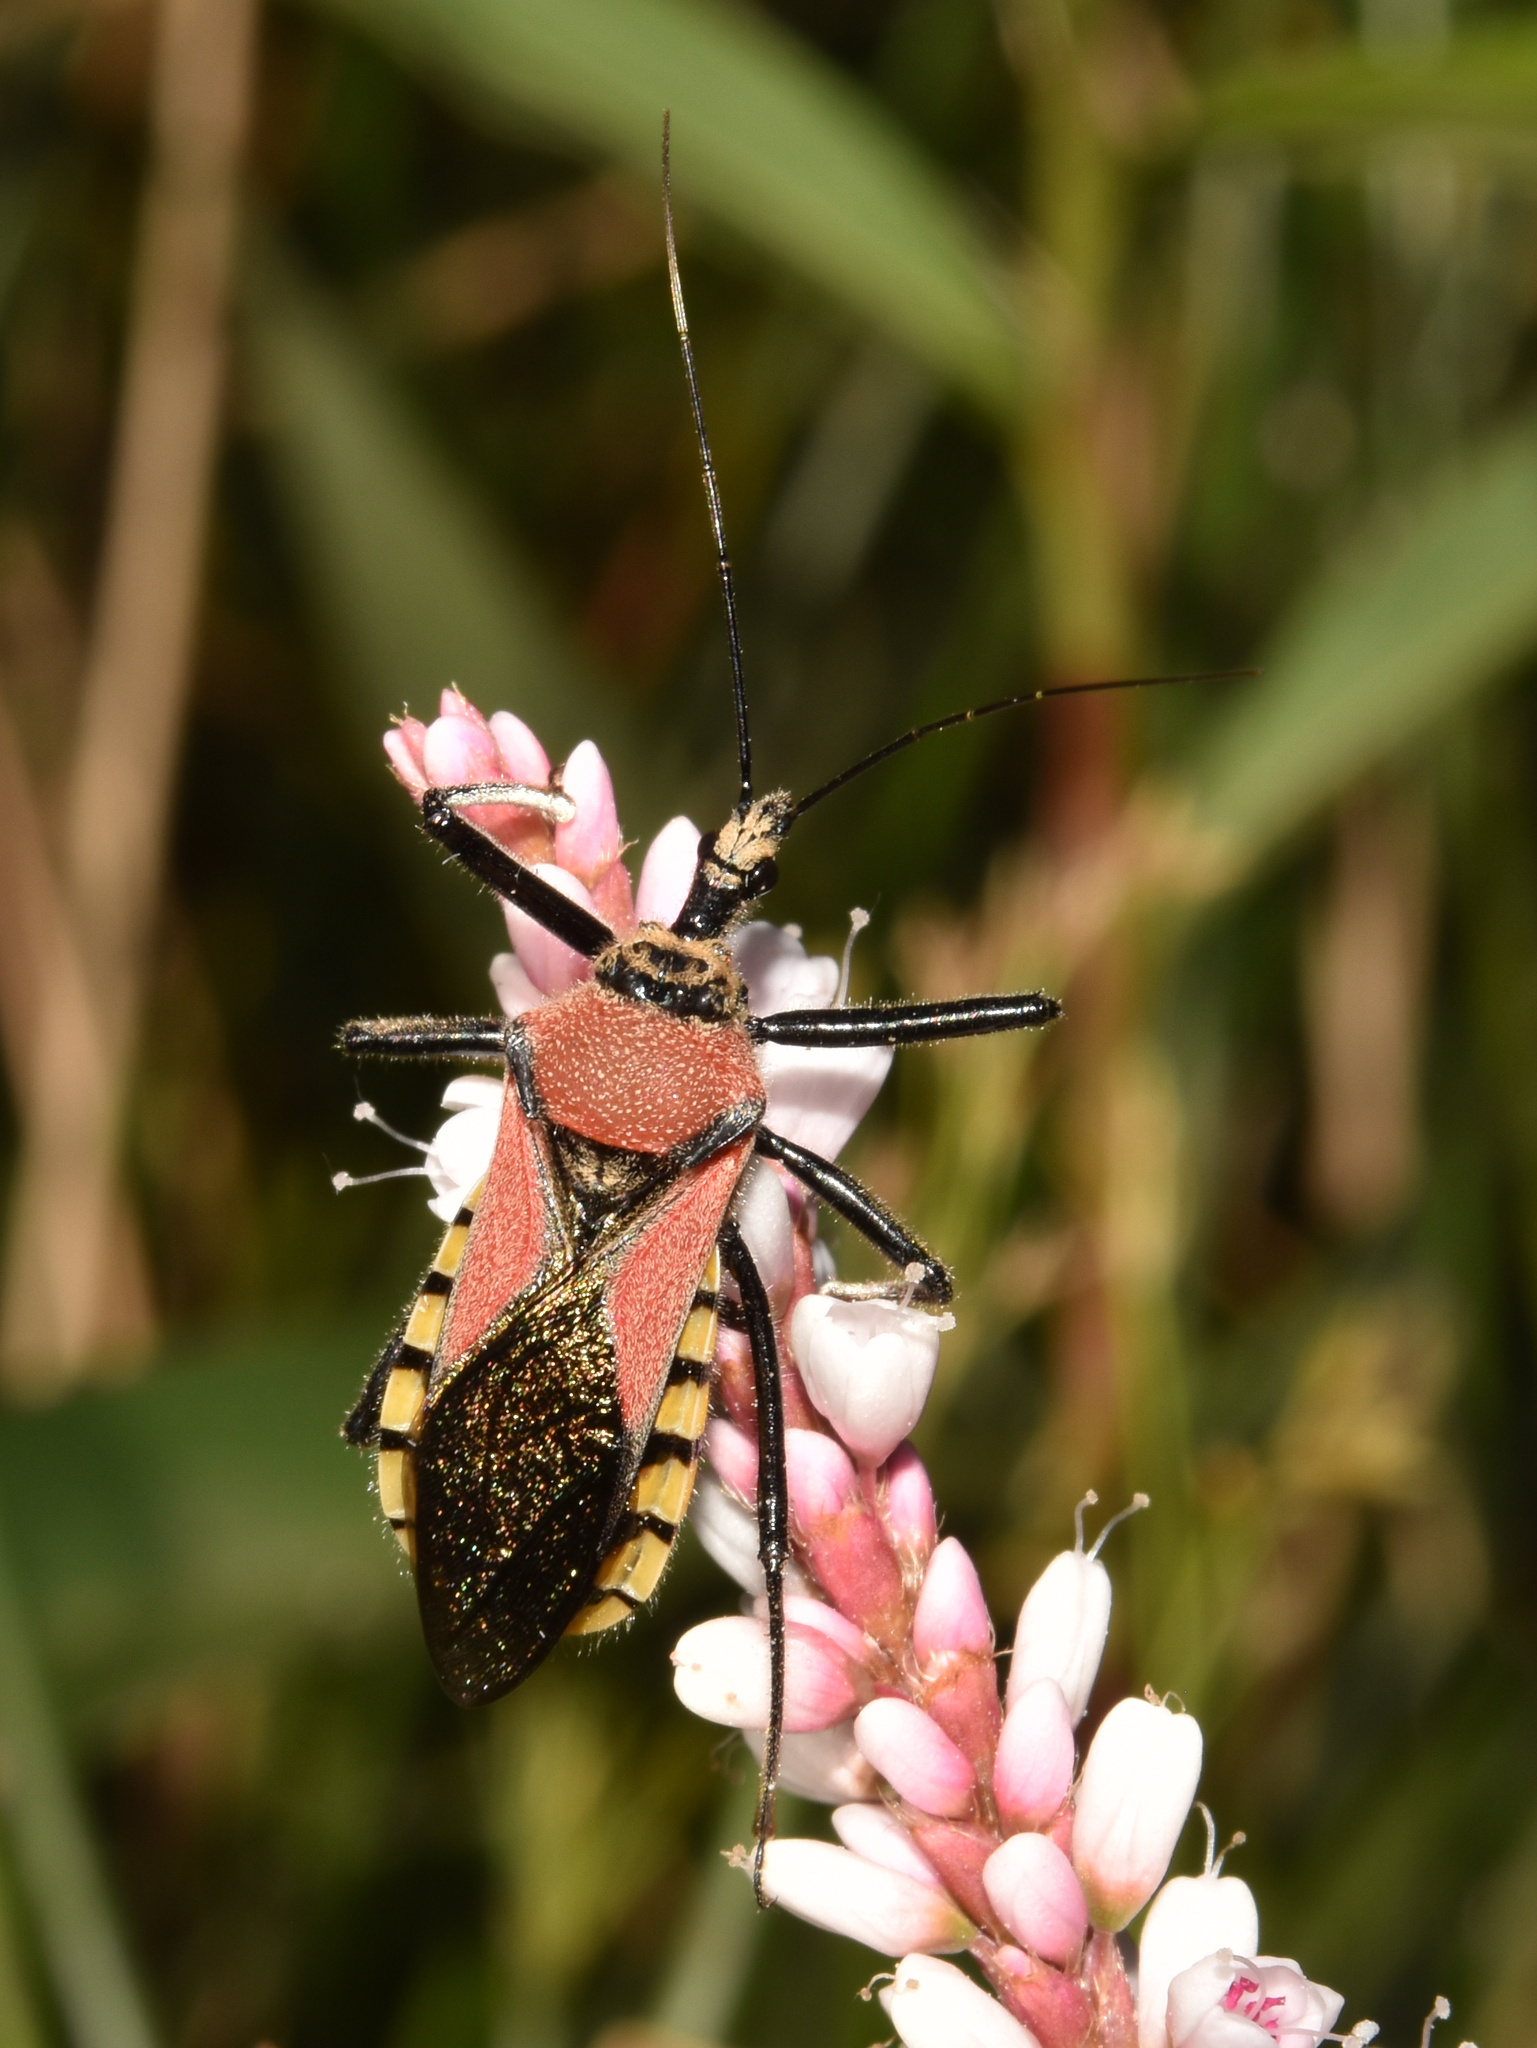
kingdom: Animalia
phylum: Arthropoda
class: Insecta
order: Hemiptera
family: Reduviidae
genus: Rhynocoris
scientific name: Rhynocoris segmentarius
